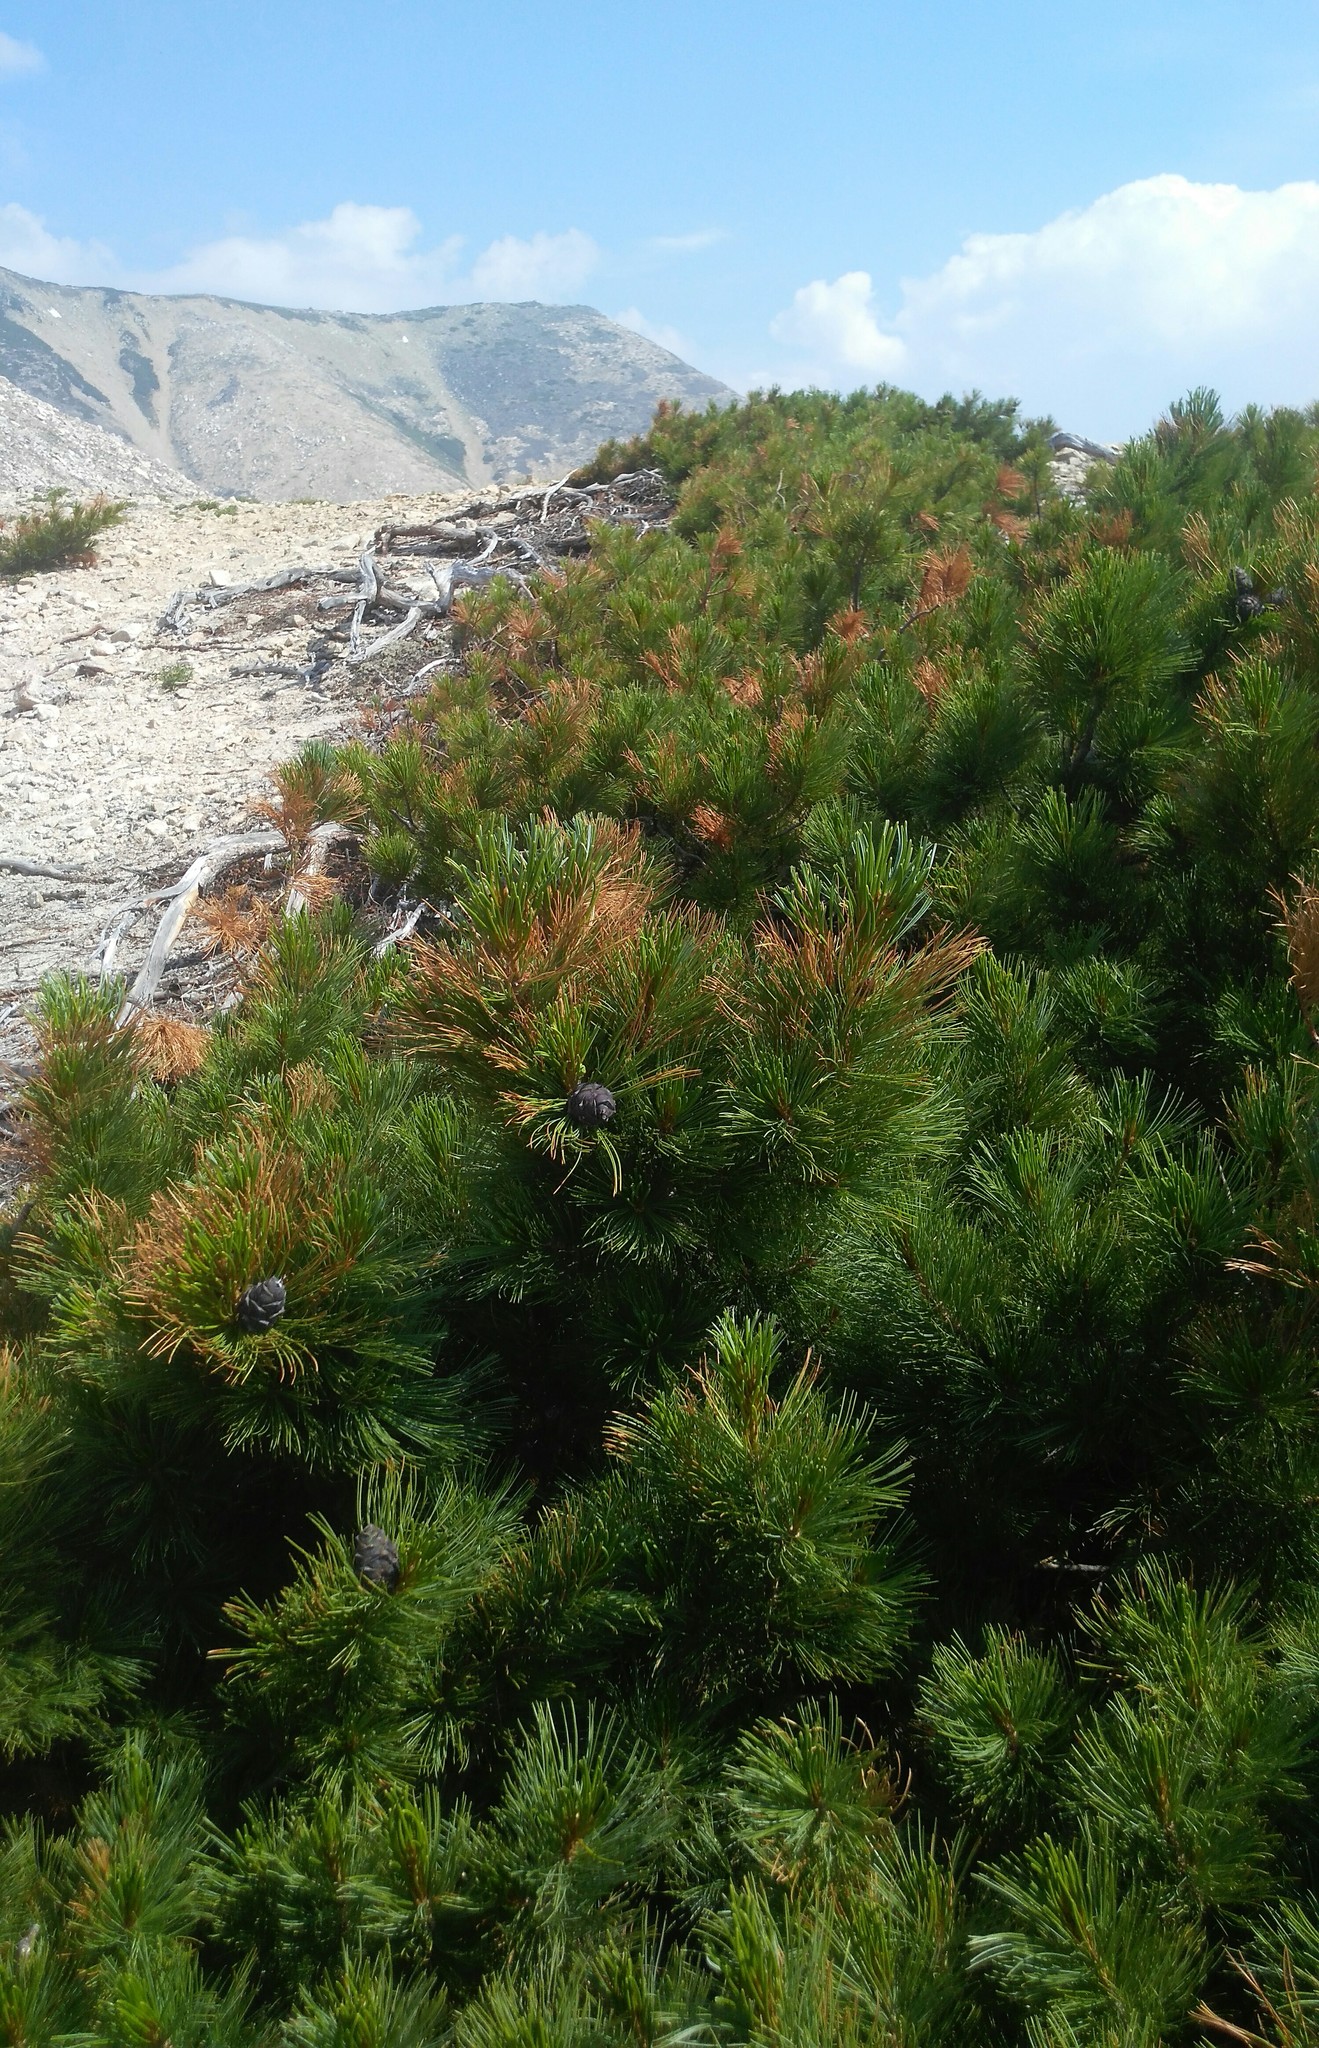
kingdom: Plantae
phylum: Tracheophyta
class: Pinopsida
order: Pinales
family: Pinaceae
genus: Pinus
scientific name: Pinus pumila
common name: Dwarf siberian pine
